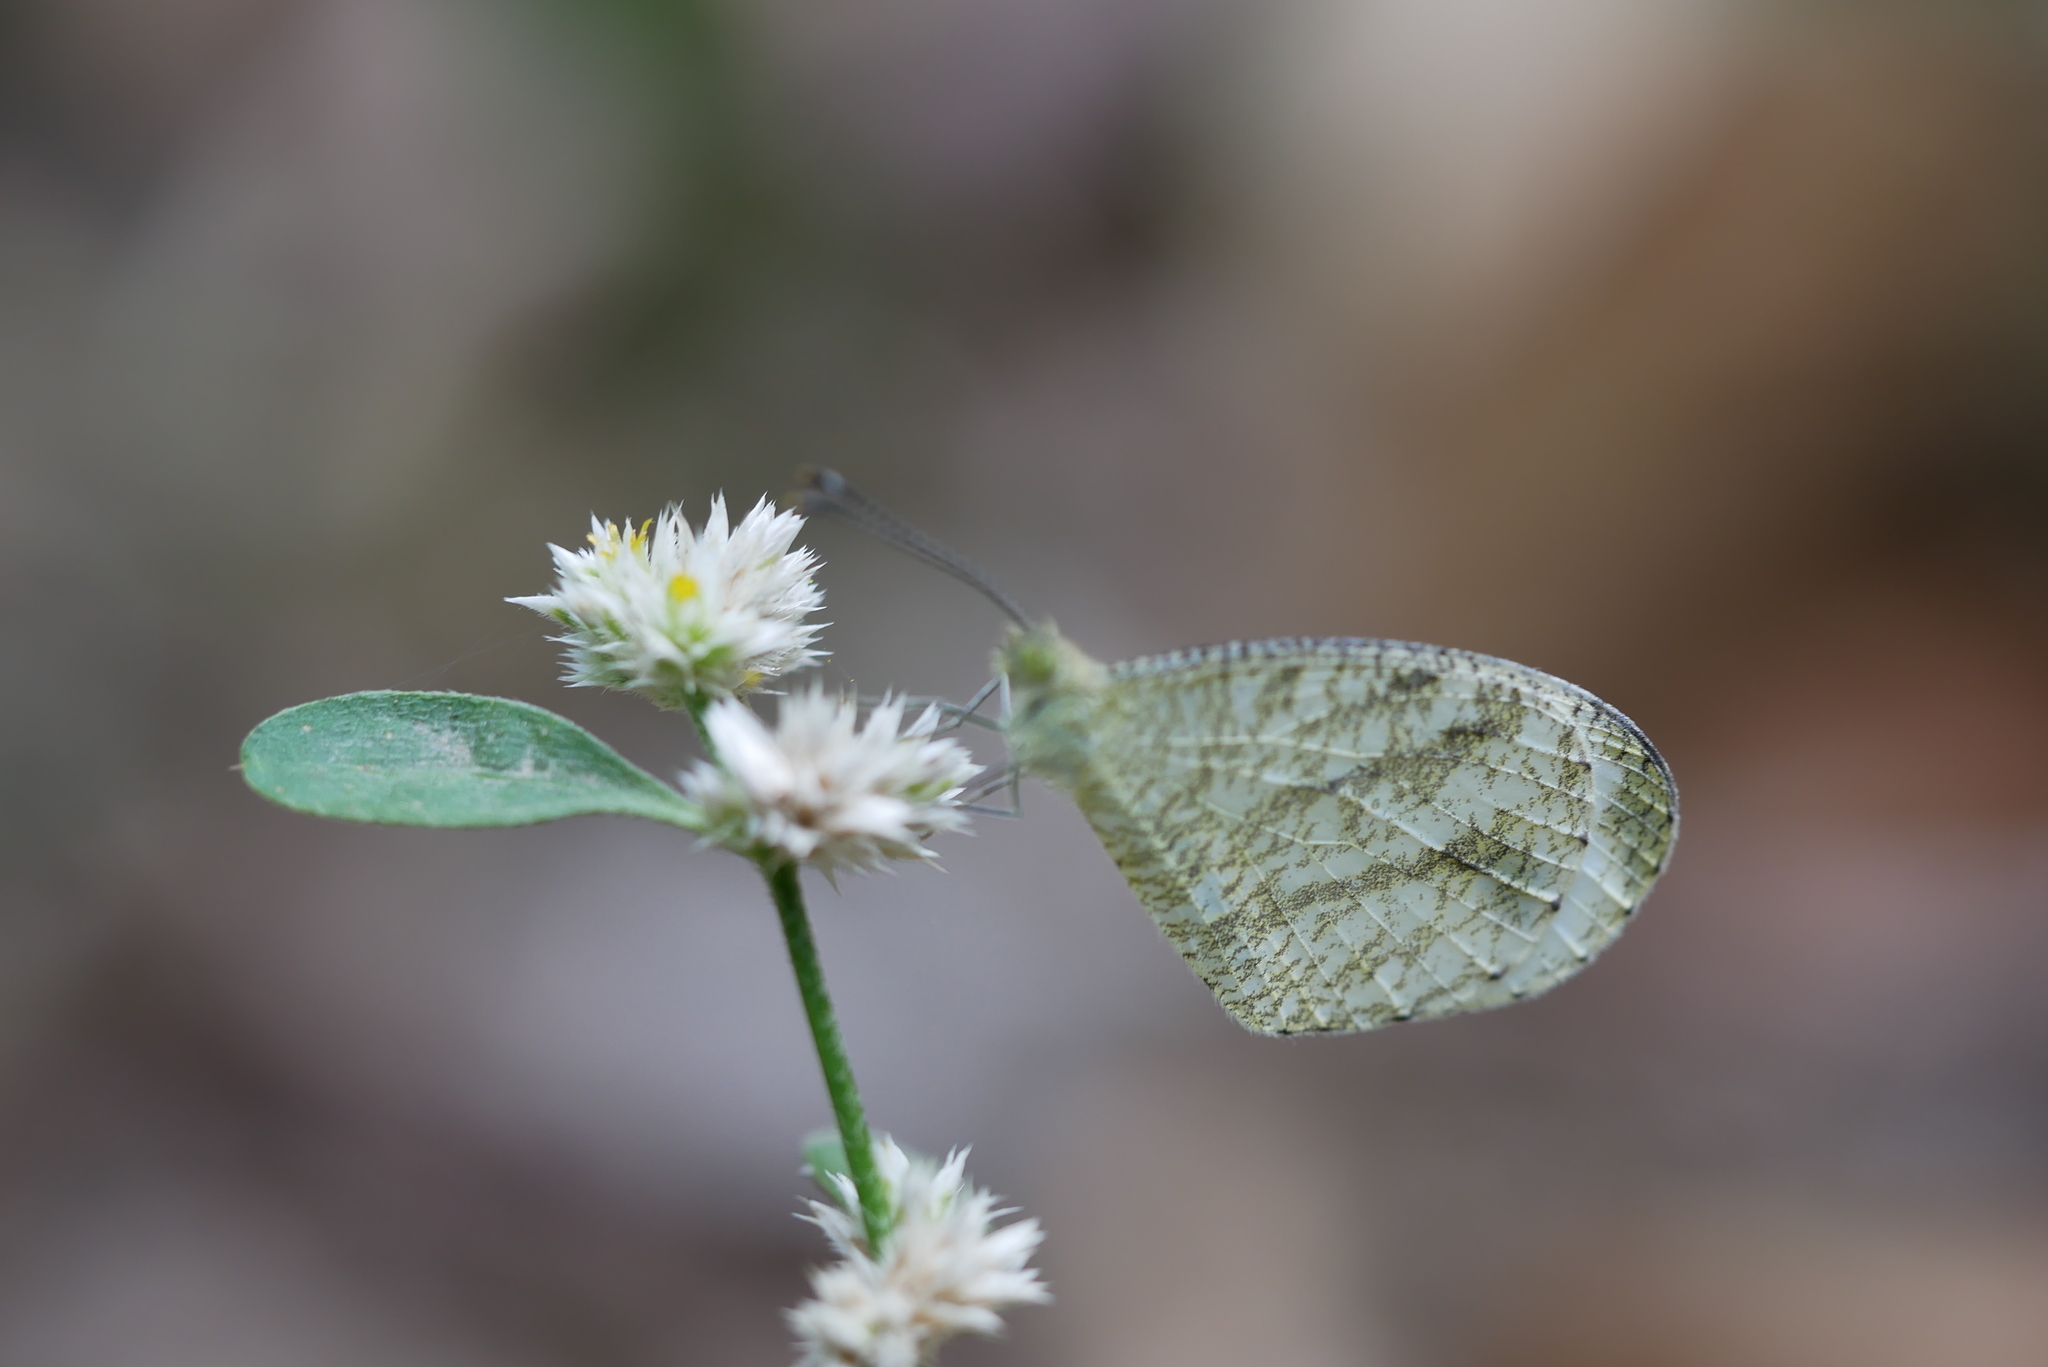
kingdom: Animalia
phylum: Arthropoda
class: Insecta
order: Lepidoptera
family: Pieridae
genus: Leptosia
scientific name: Leptosia nina
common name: Psyche
